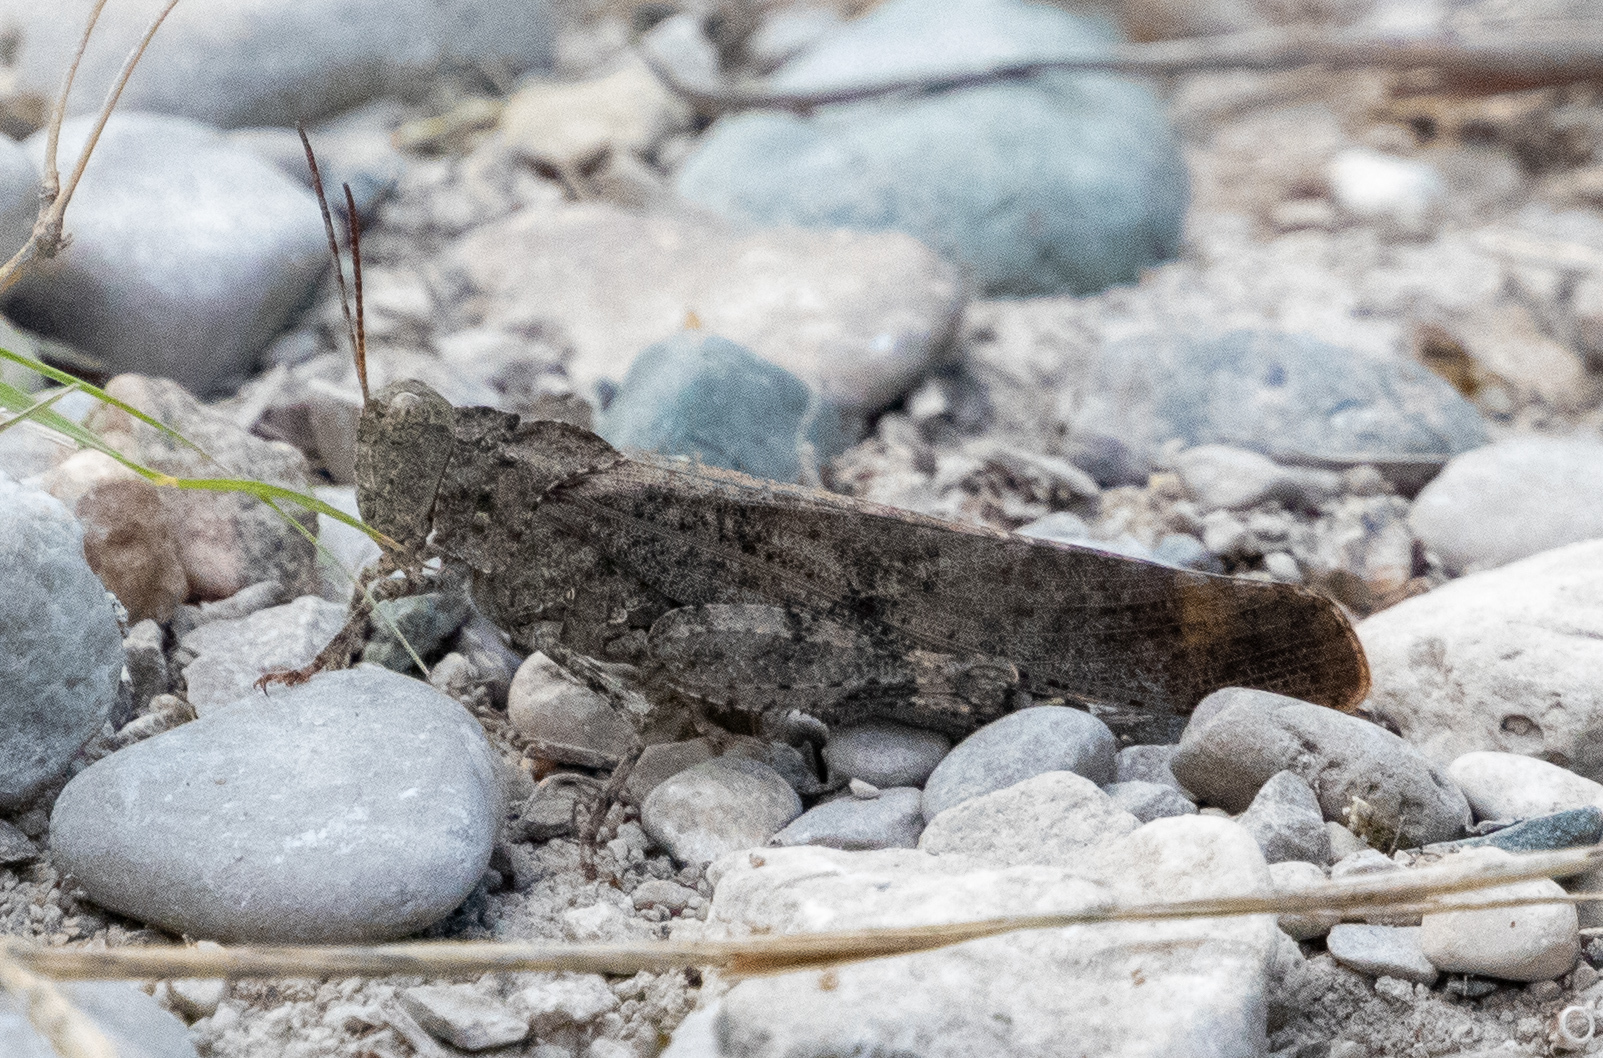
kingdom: Animalia
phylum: Arthropoda
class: Insecta
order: Orthoptera
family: Acrididae
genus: Dissosteira
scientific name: Dissosteira carolina
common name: Carolina grasshopper
